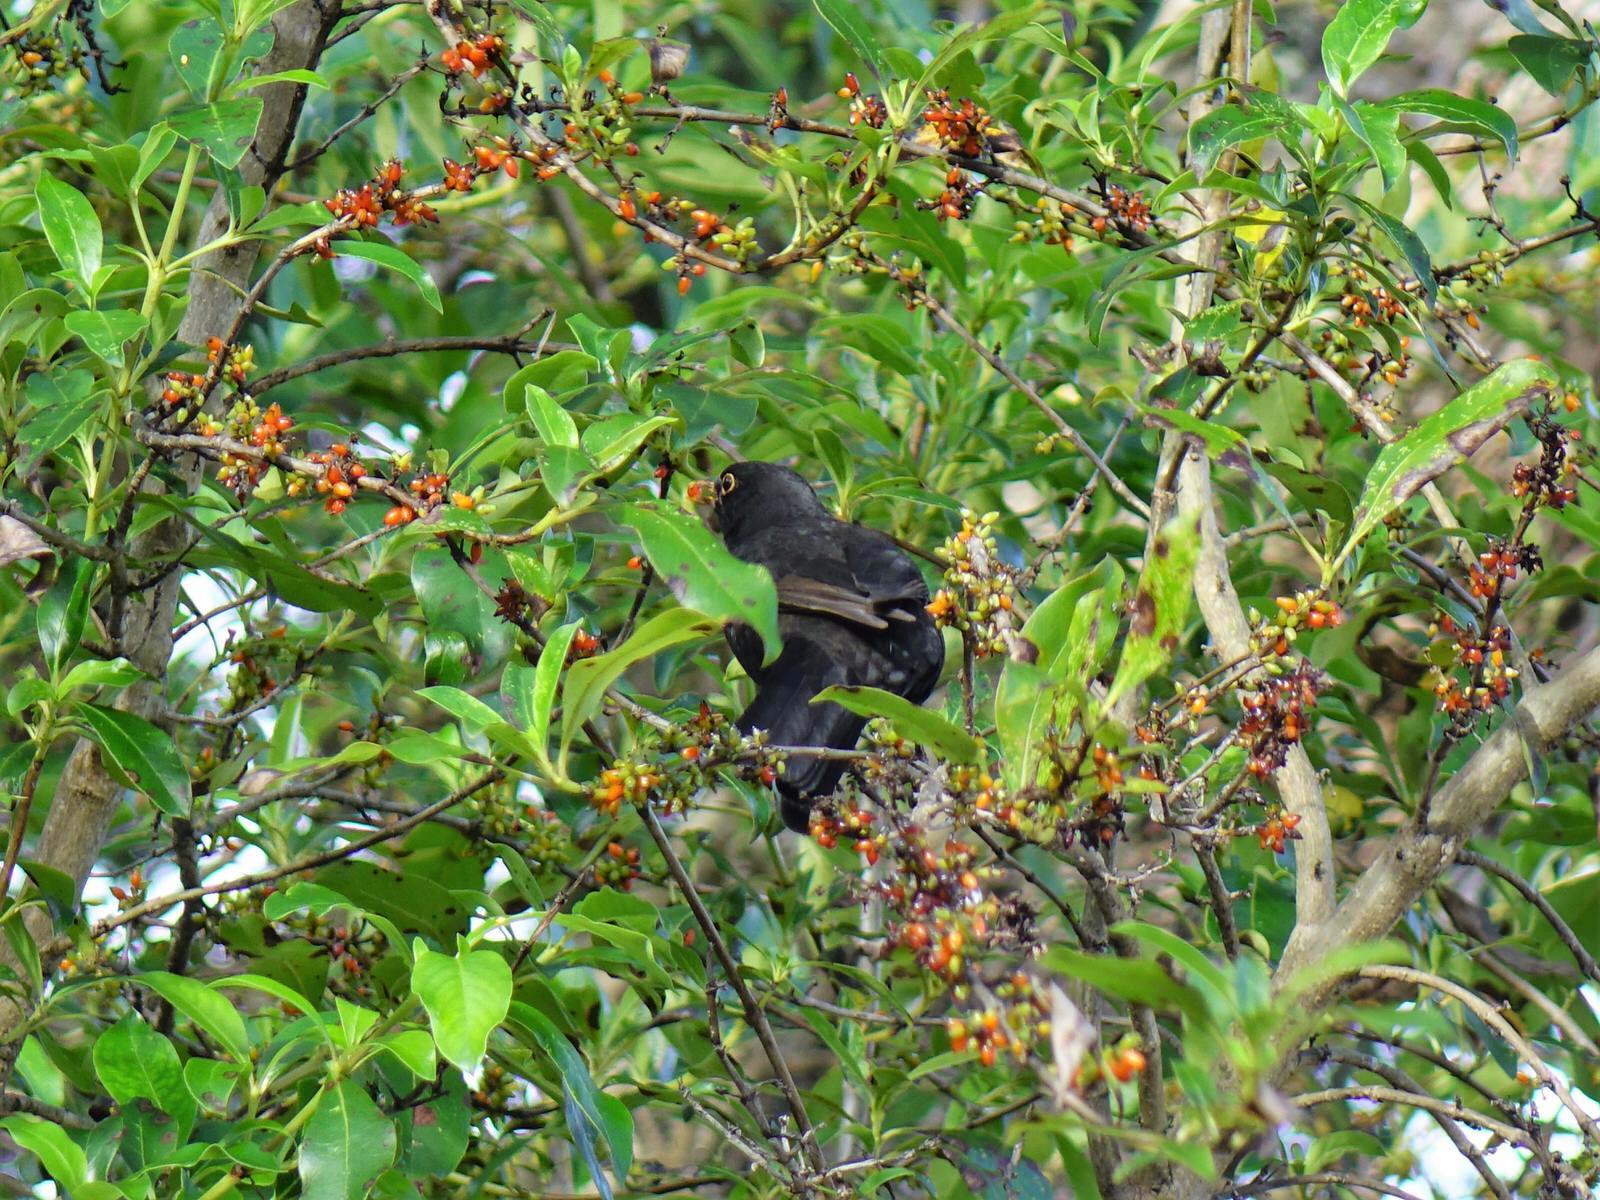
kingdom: Animalia
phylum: Chordata
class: Aves
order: Passeriformes
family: Turdidae
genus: Turdus
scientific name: Turdus merula
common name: Common blackbird
